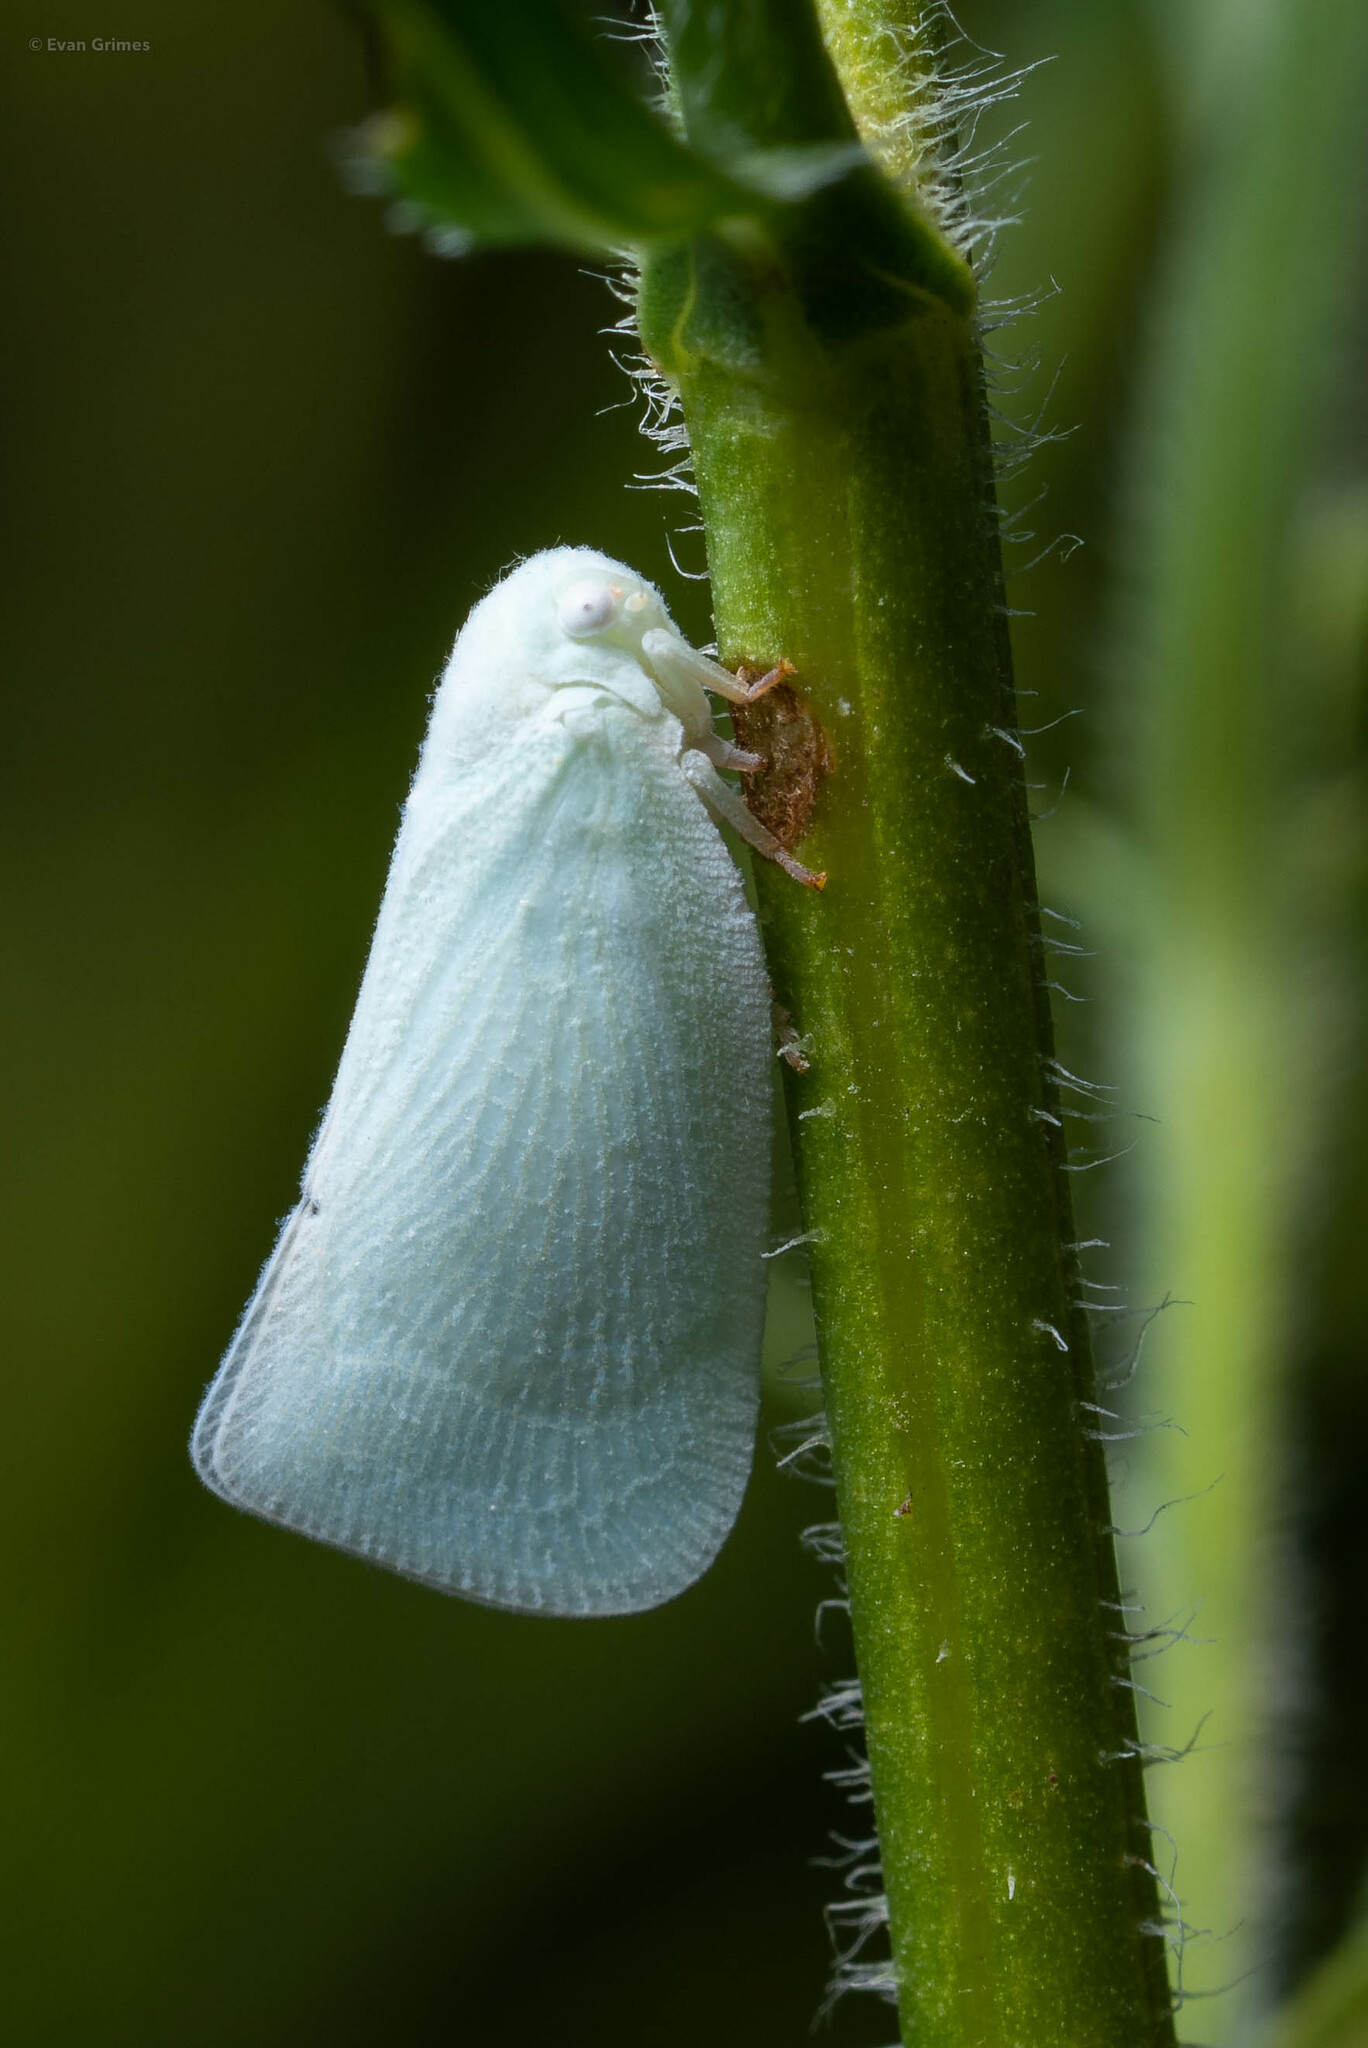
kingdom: Animalia
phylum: Arthropoda
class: Insecta
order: Hemiptera
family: Flatidae
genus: Flatormenis
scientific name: Flatormenis proxima
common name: Northern flatid planthopper
